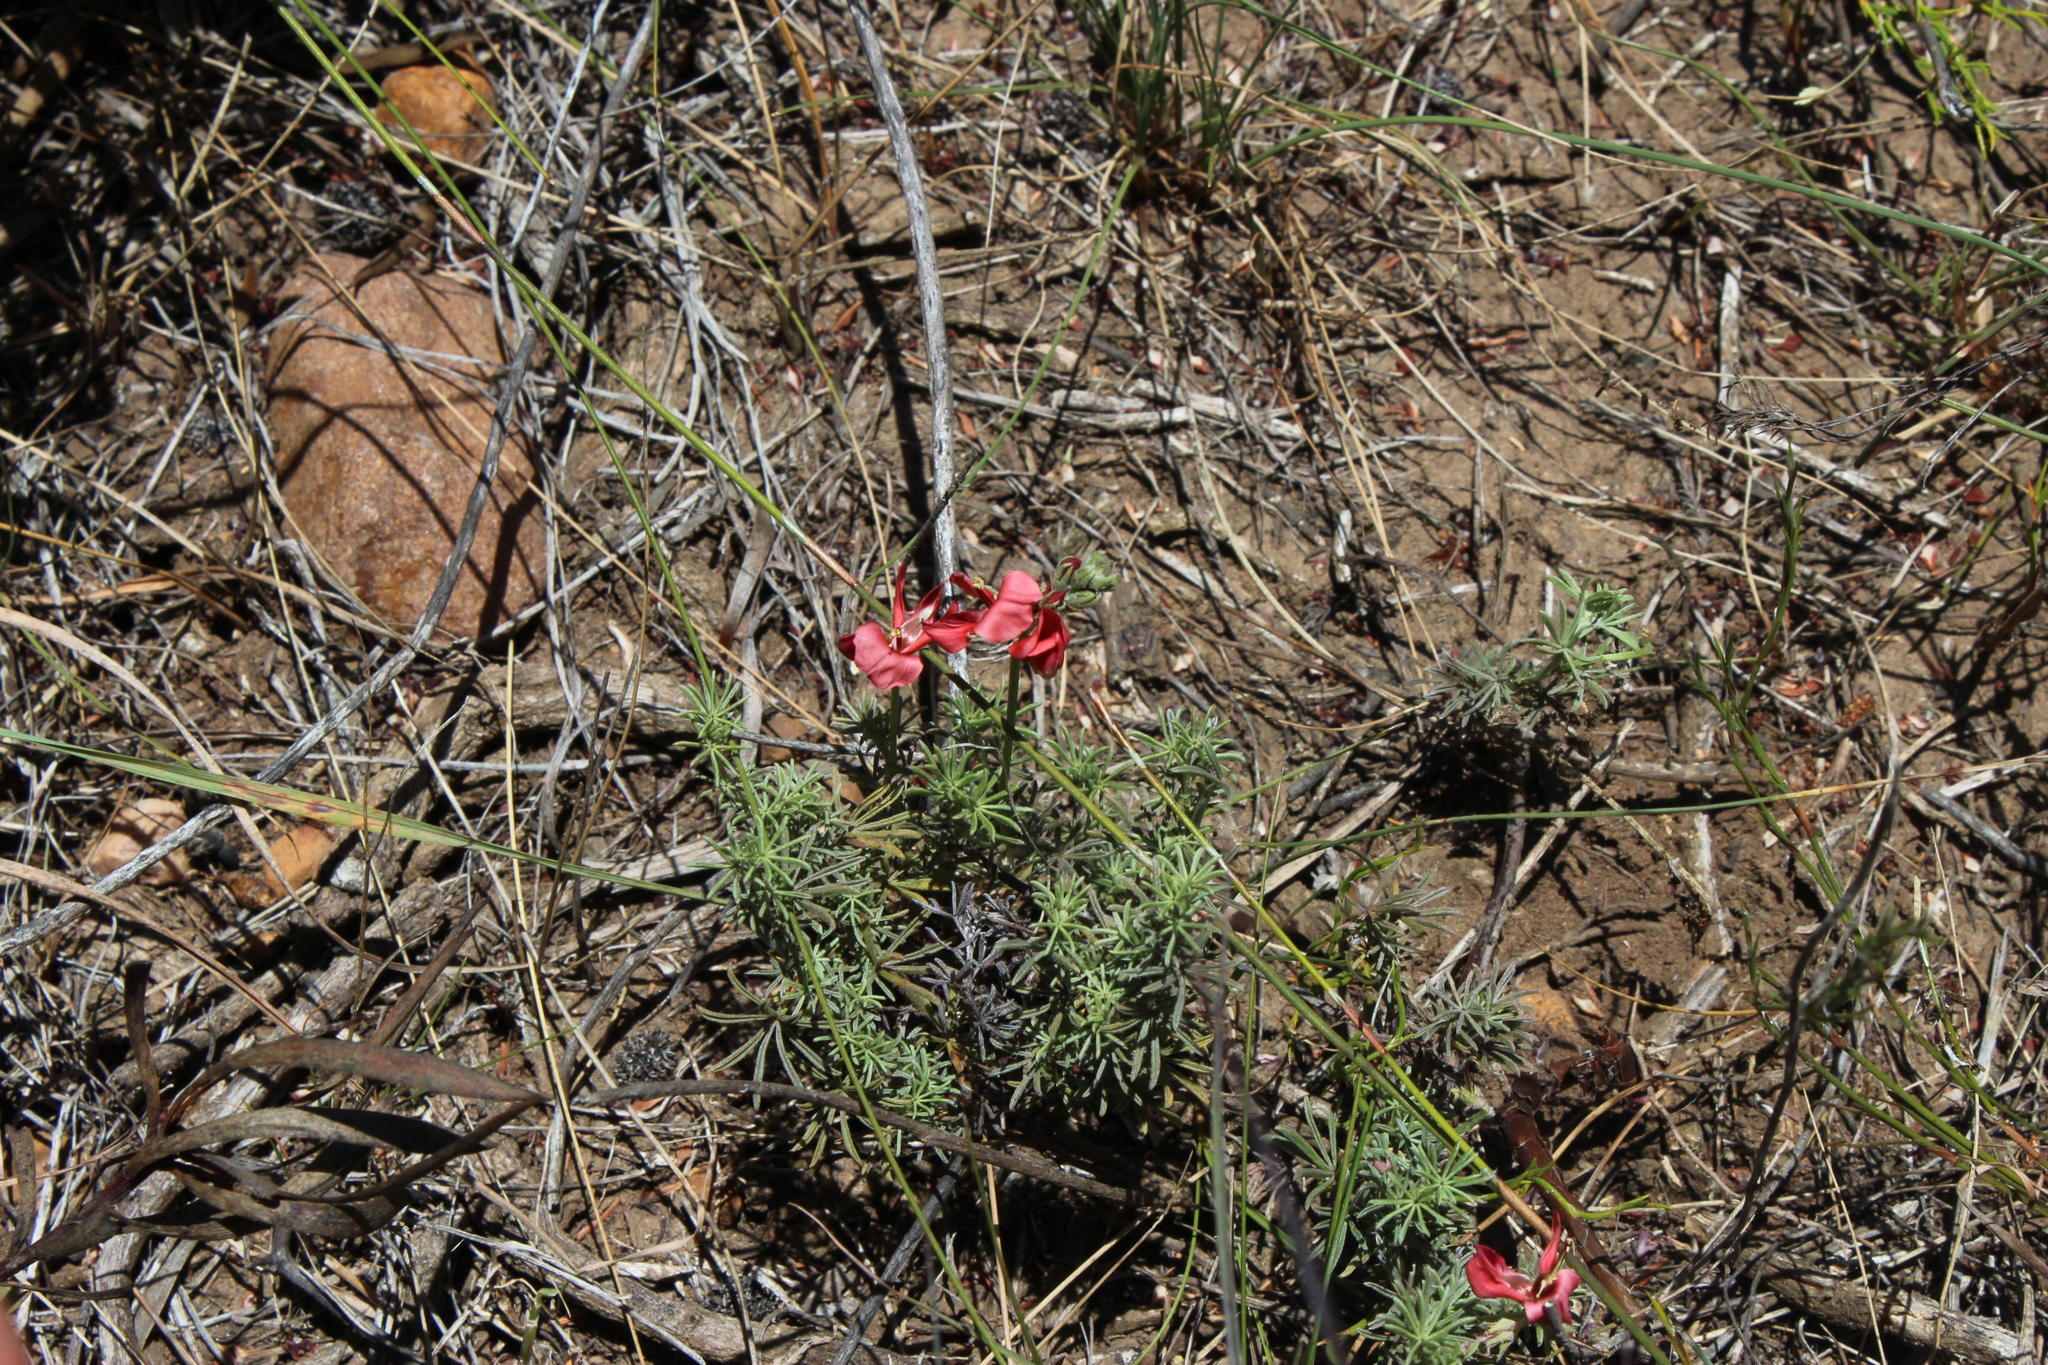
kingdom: Plantae
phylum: Tracheophyta
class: Magnoliopsida
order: Fabales
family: Fabaceae
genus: Indigofera
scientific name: Indigofera digitata
